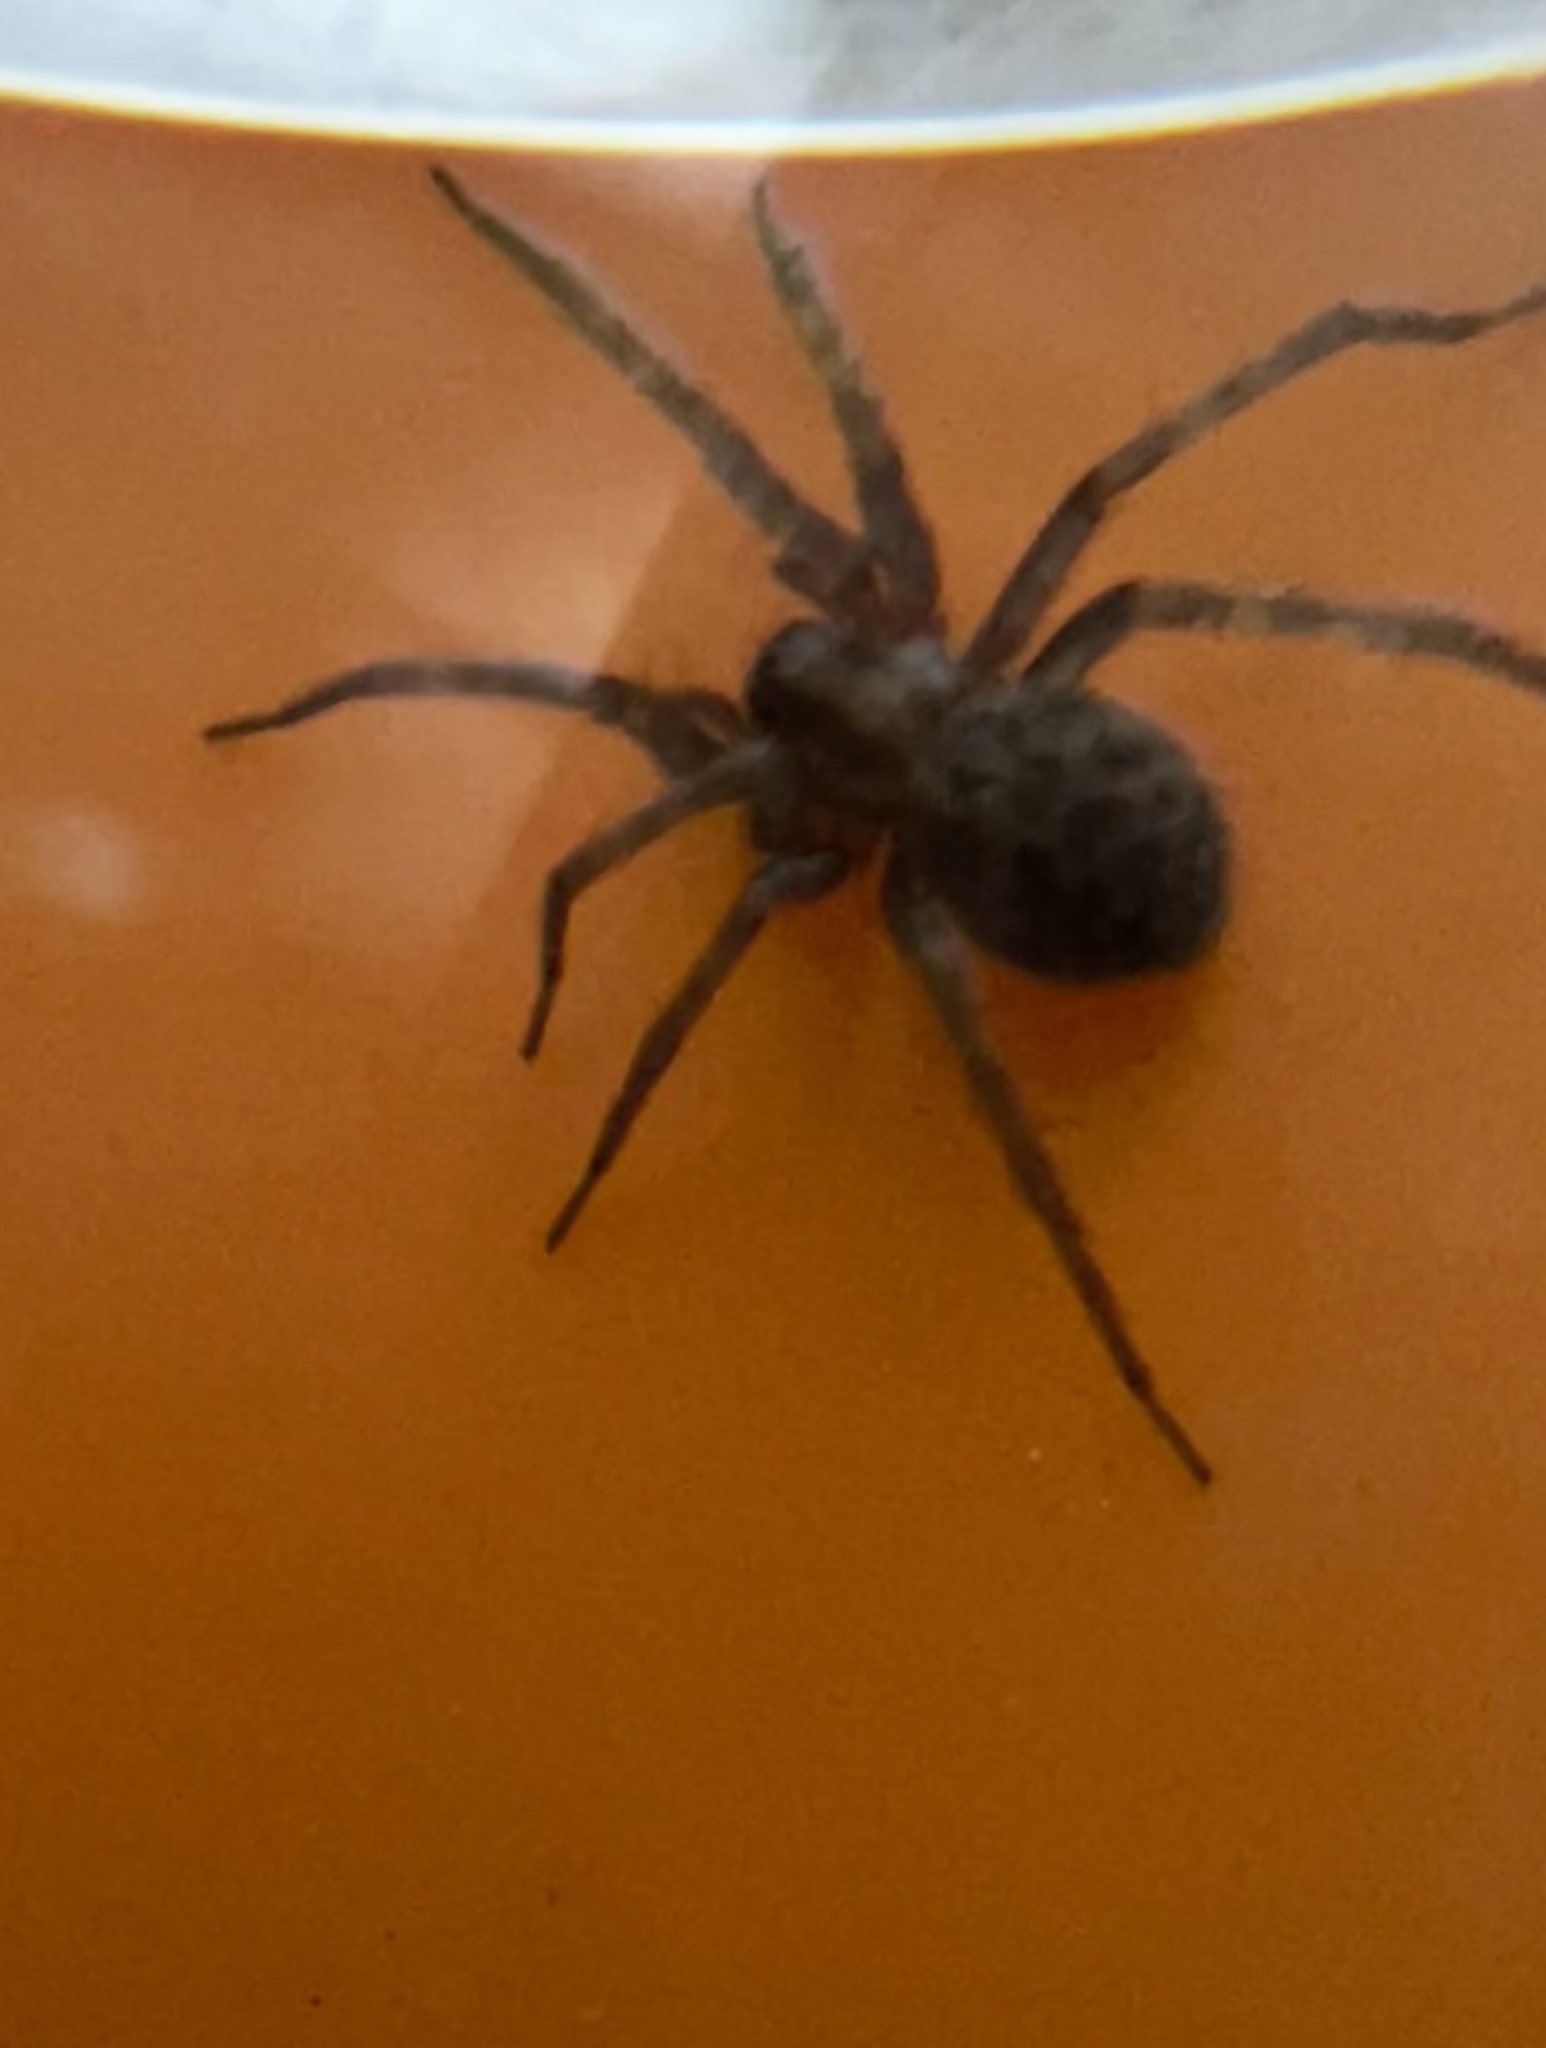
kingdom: Animalia
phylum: Arthropoda
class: Arachnida
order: Araneae
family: Agelenidae
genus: Tegenaria
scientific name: Tegenaria domestica
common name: Barn funnel weaver
